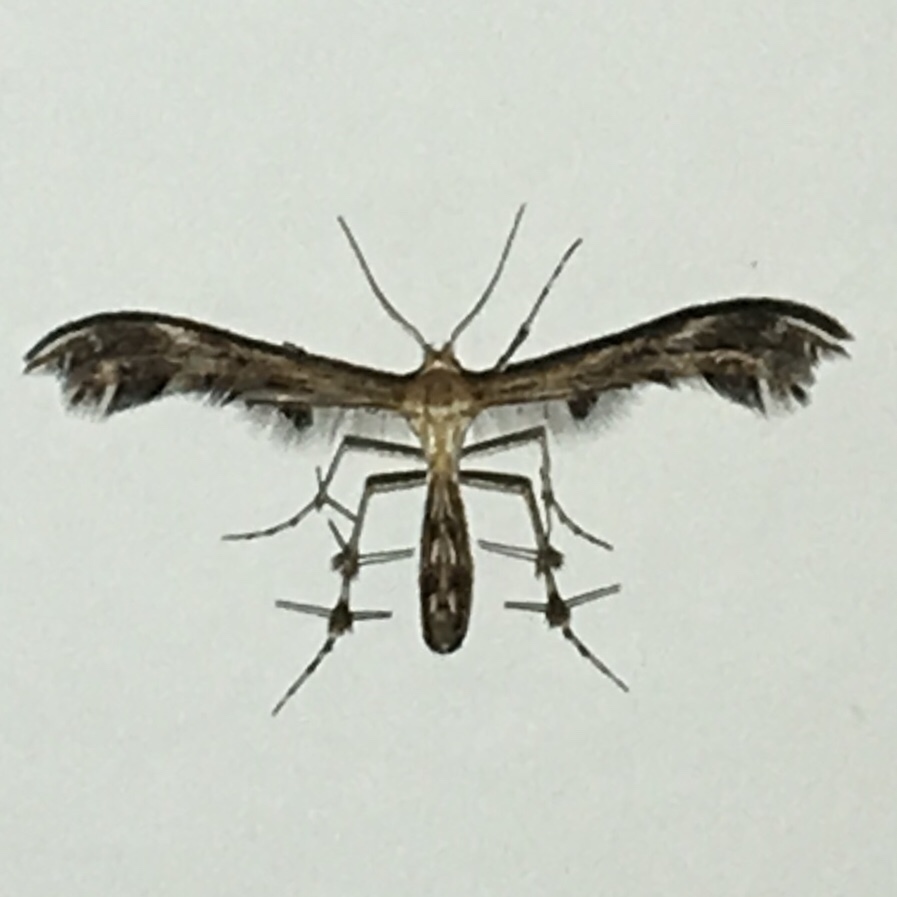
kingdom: Animalia
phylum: Arthropoda
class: Insecta
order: Lepidoptera
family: Pterophoridae
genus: Dejongia
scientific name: Dejongia lobidactylus
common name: Lobed plume moth
